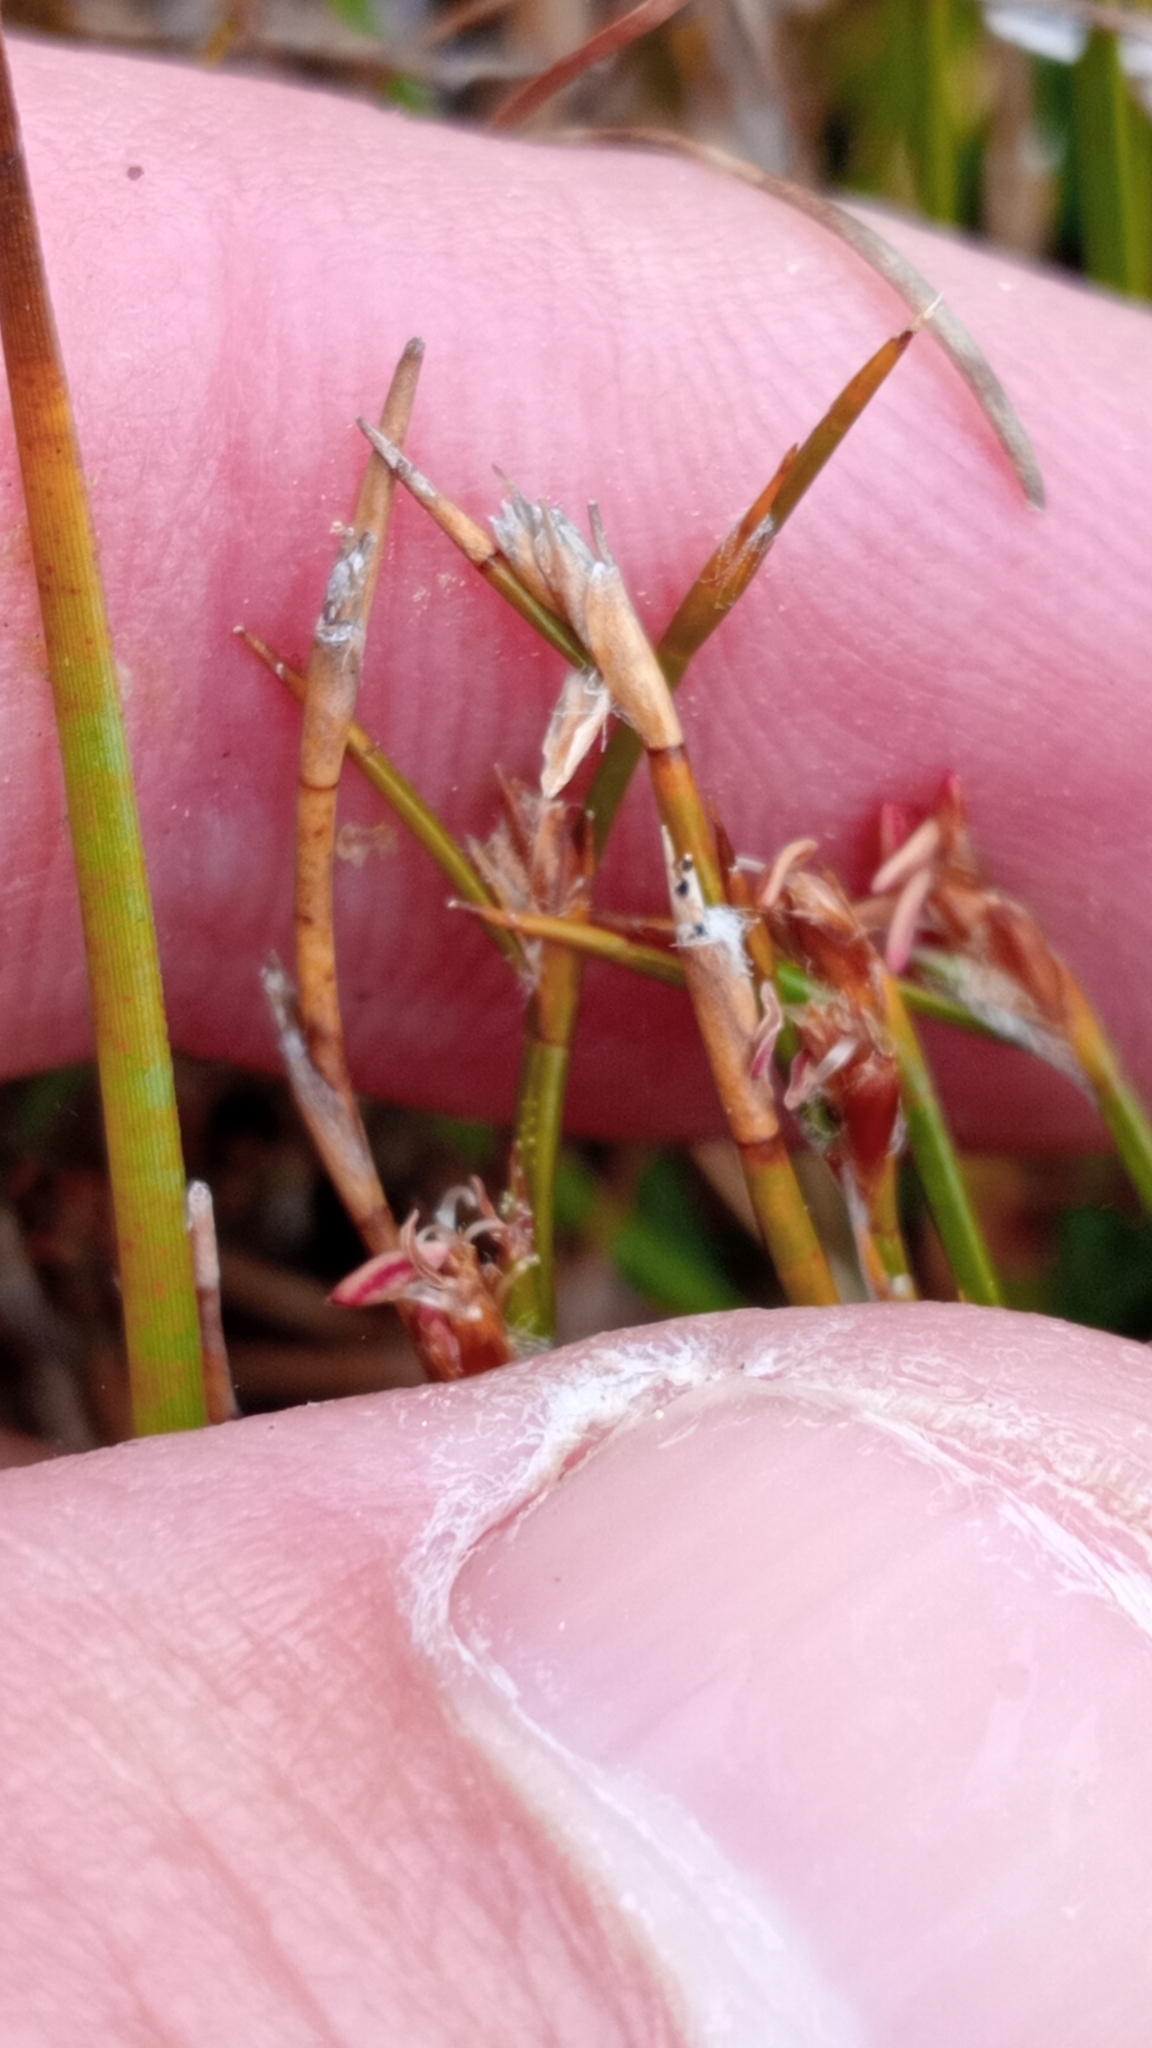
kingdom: Plantae
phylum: Tracheophyta
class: Liliopsida
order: Poales
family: Restionaceae
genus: Empodisma
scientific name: Empodisma minus
